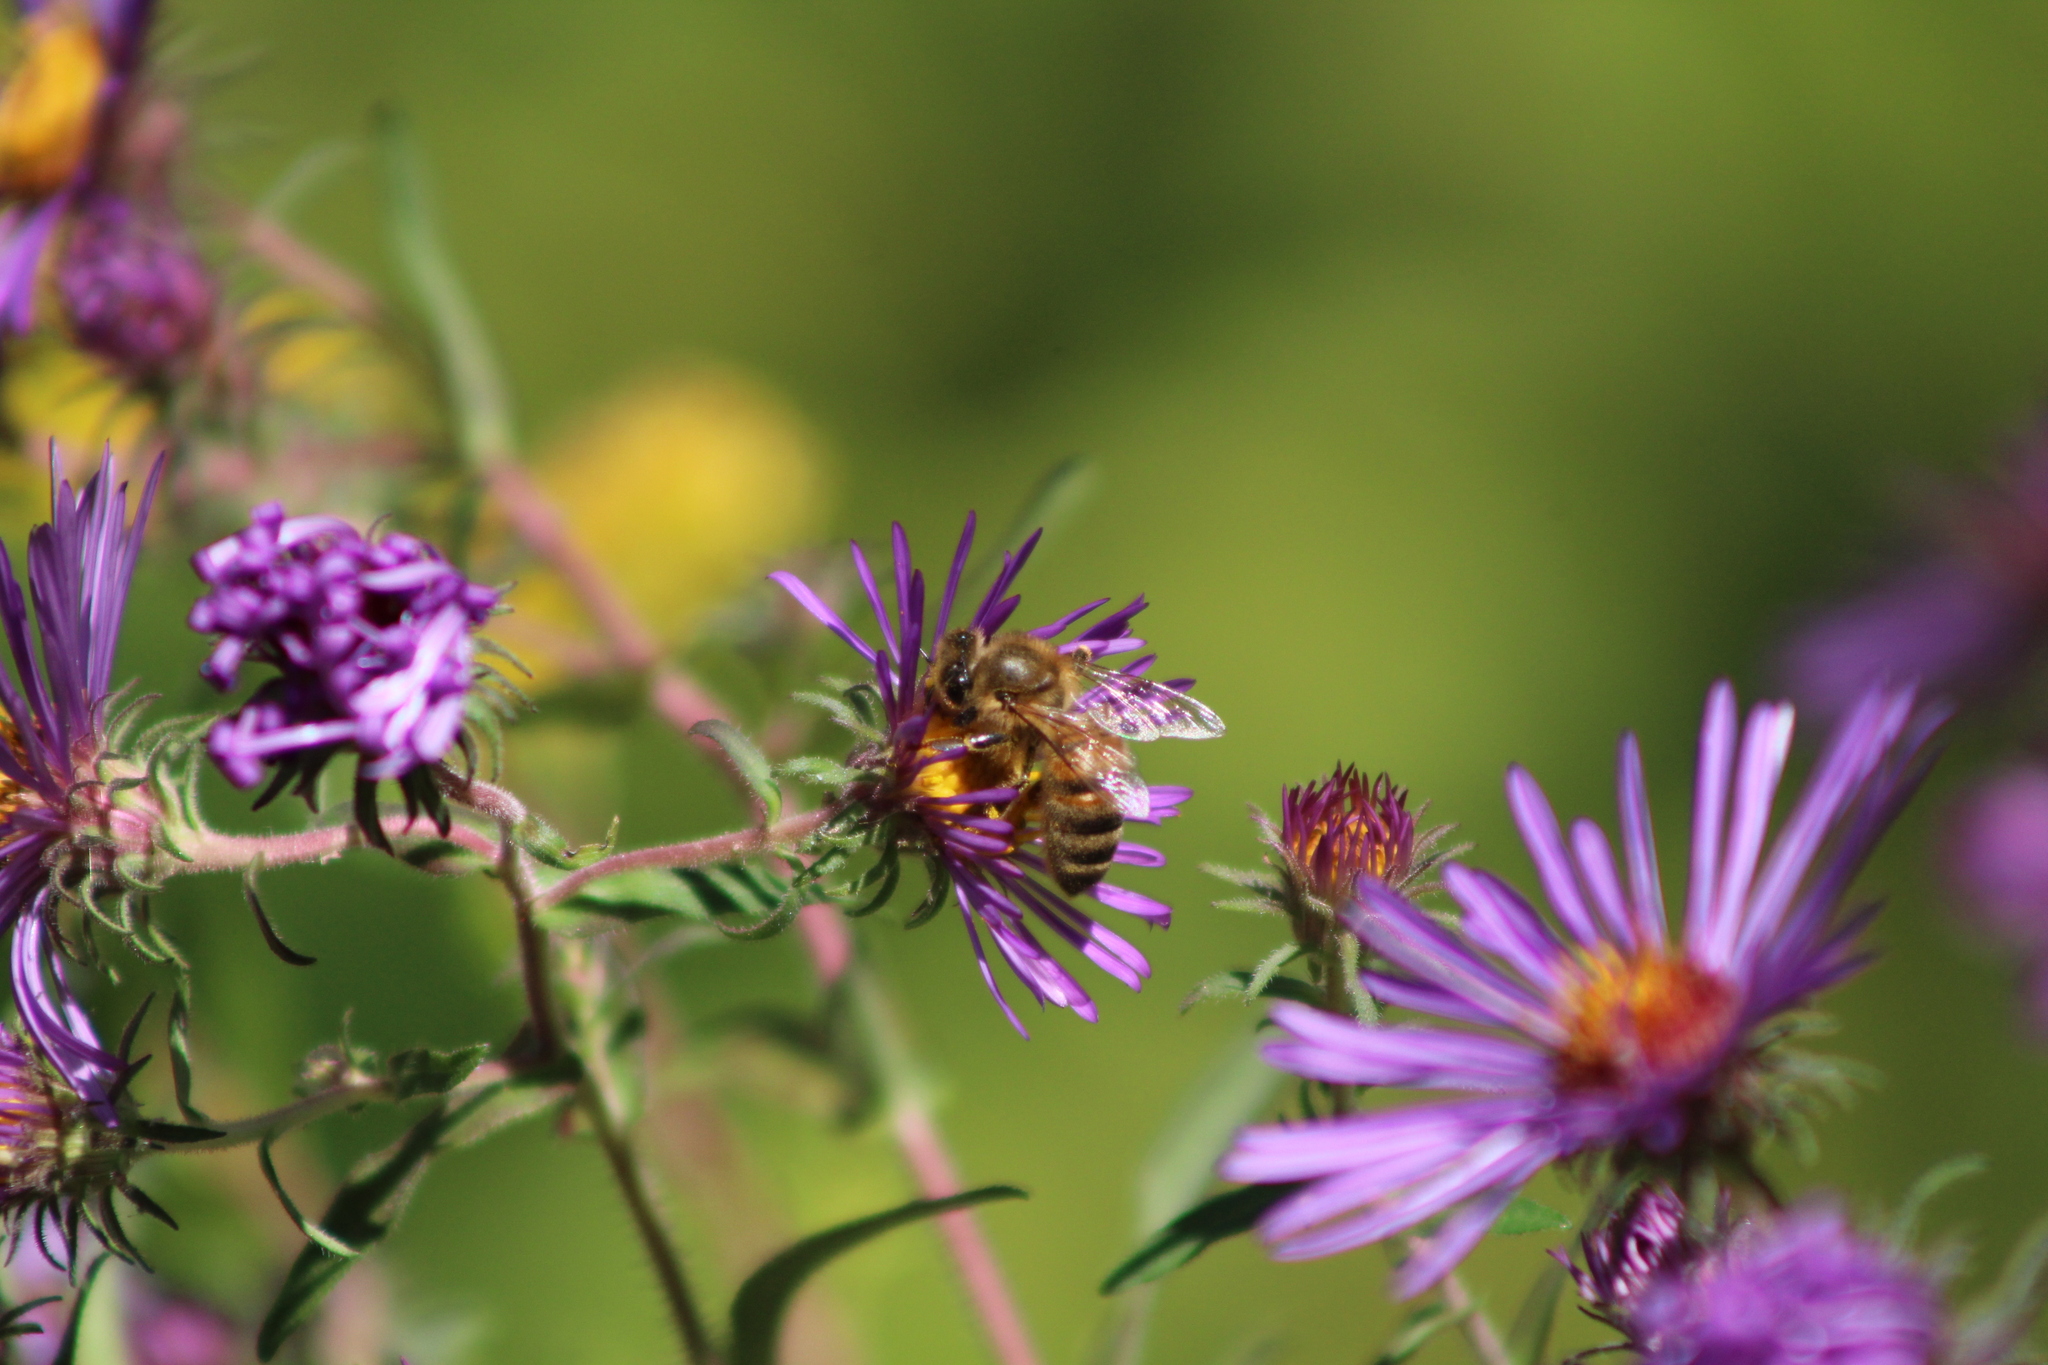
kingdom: Animalia
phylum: Arthropoda
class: Insecta
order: Hymenoptera
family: Apidae
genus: Apis
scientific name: Apis mellifera
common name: Honey bee
